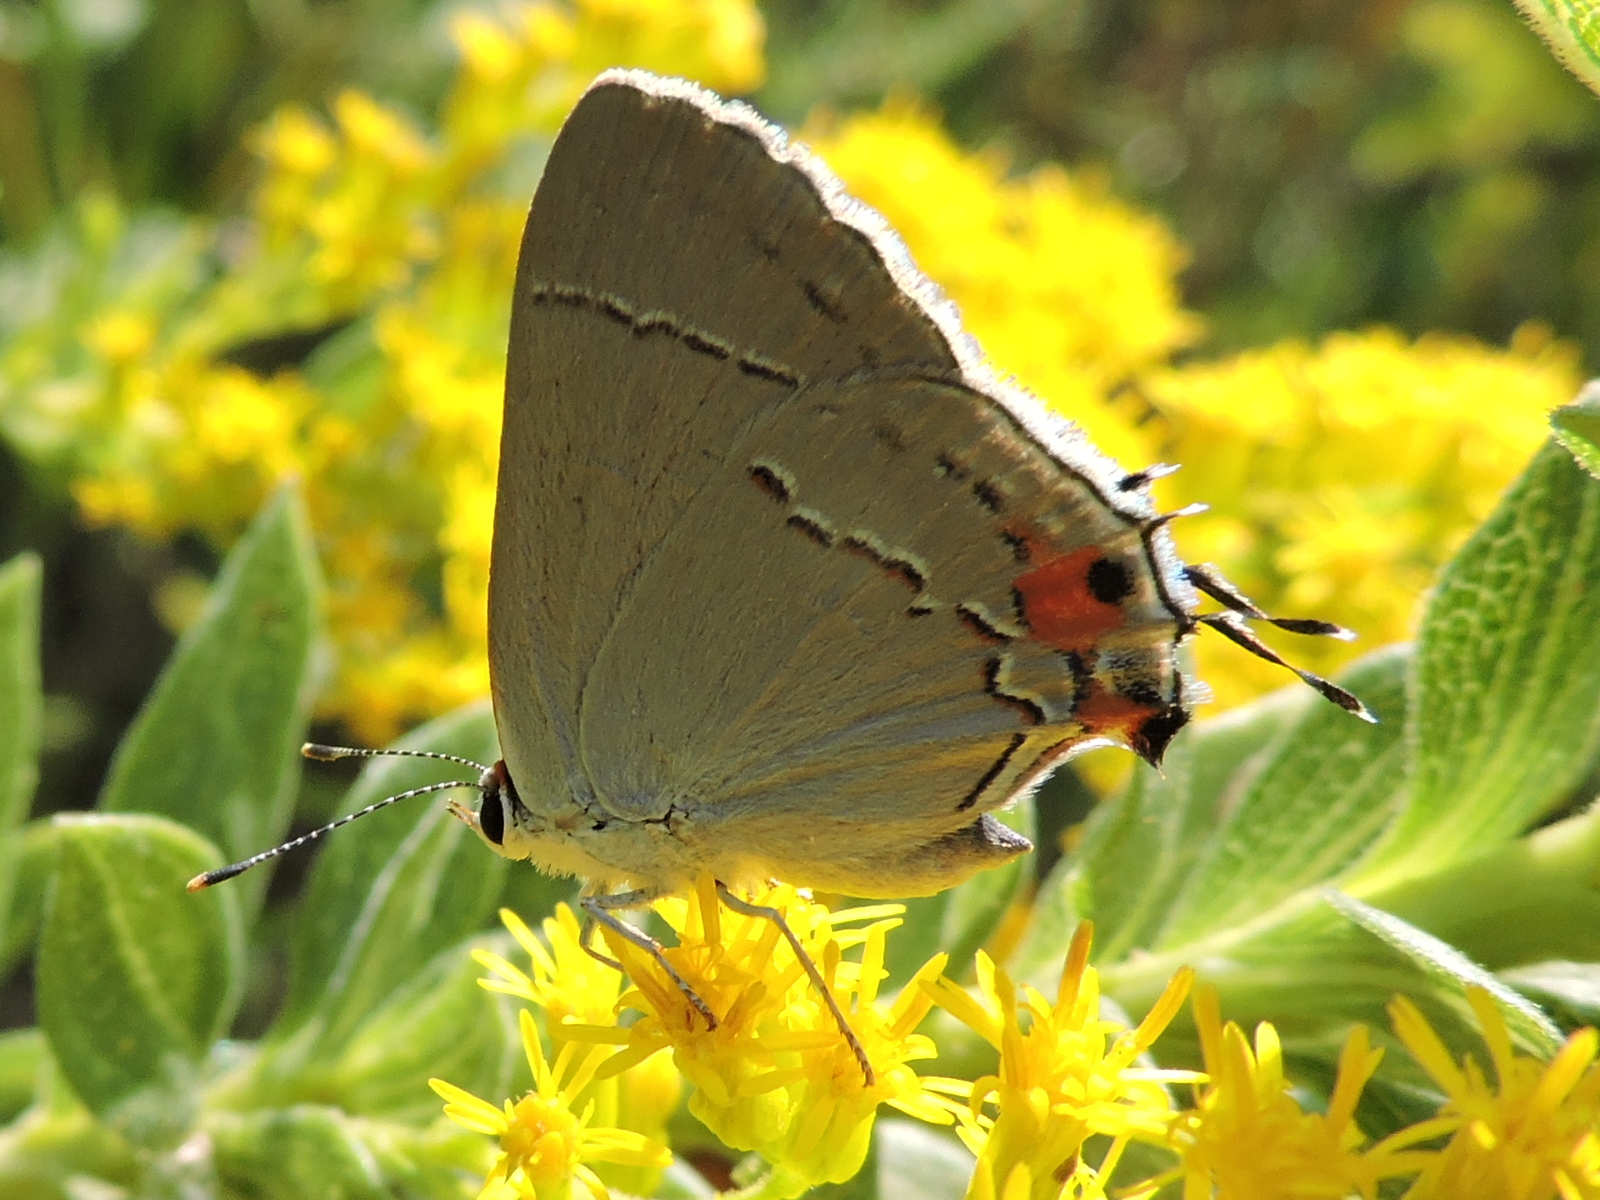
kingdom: Animalia
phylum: Arthropoda
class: Insecta
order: Lepidoptera
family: Lycaenidae
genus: Strymon
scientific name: Strymon melinus
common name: Gray hairstreak
